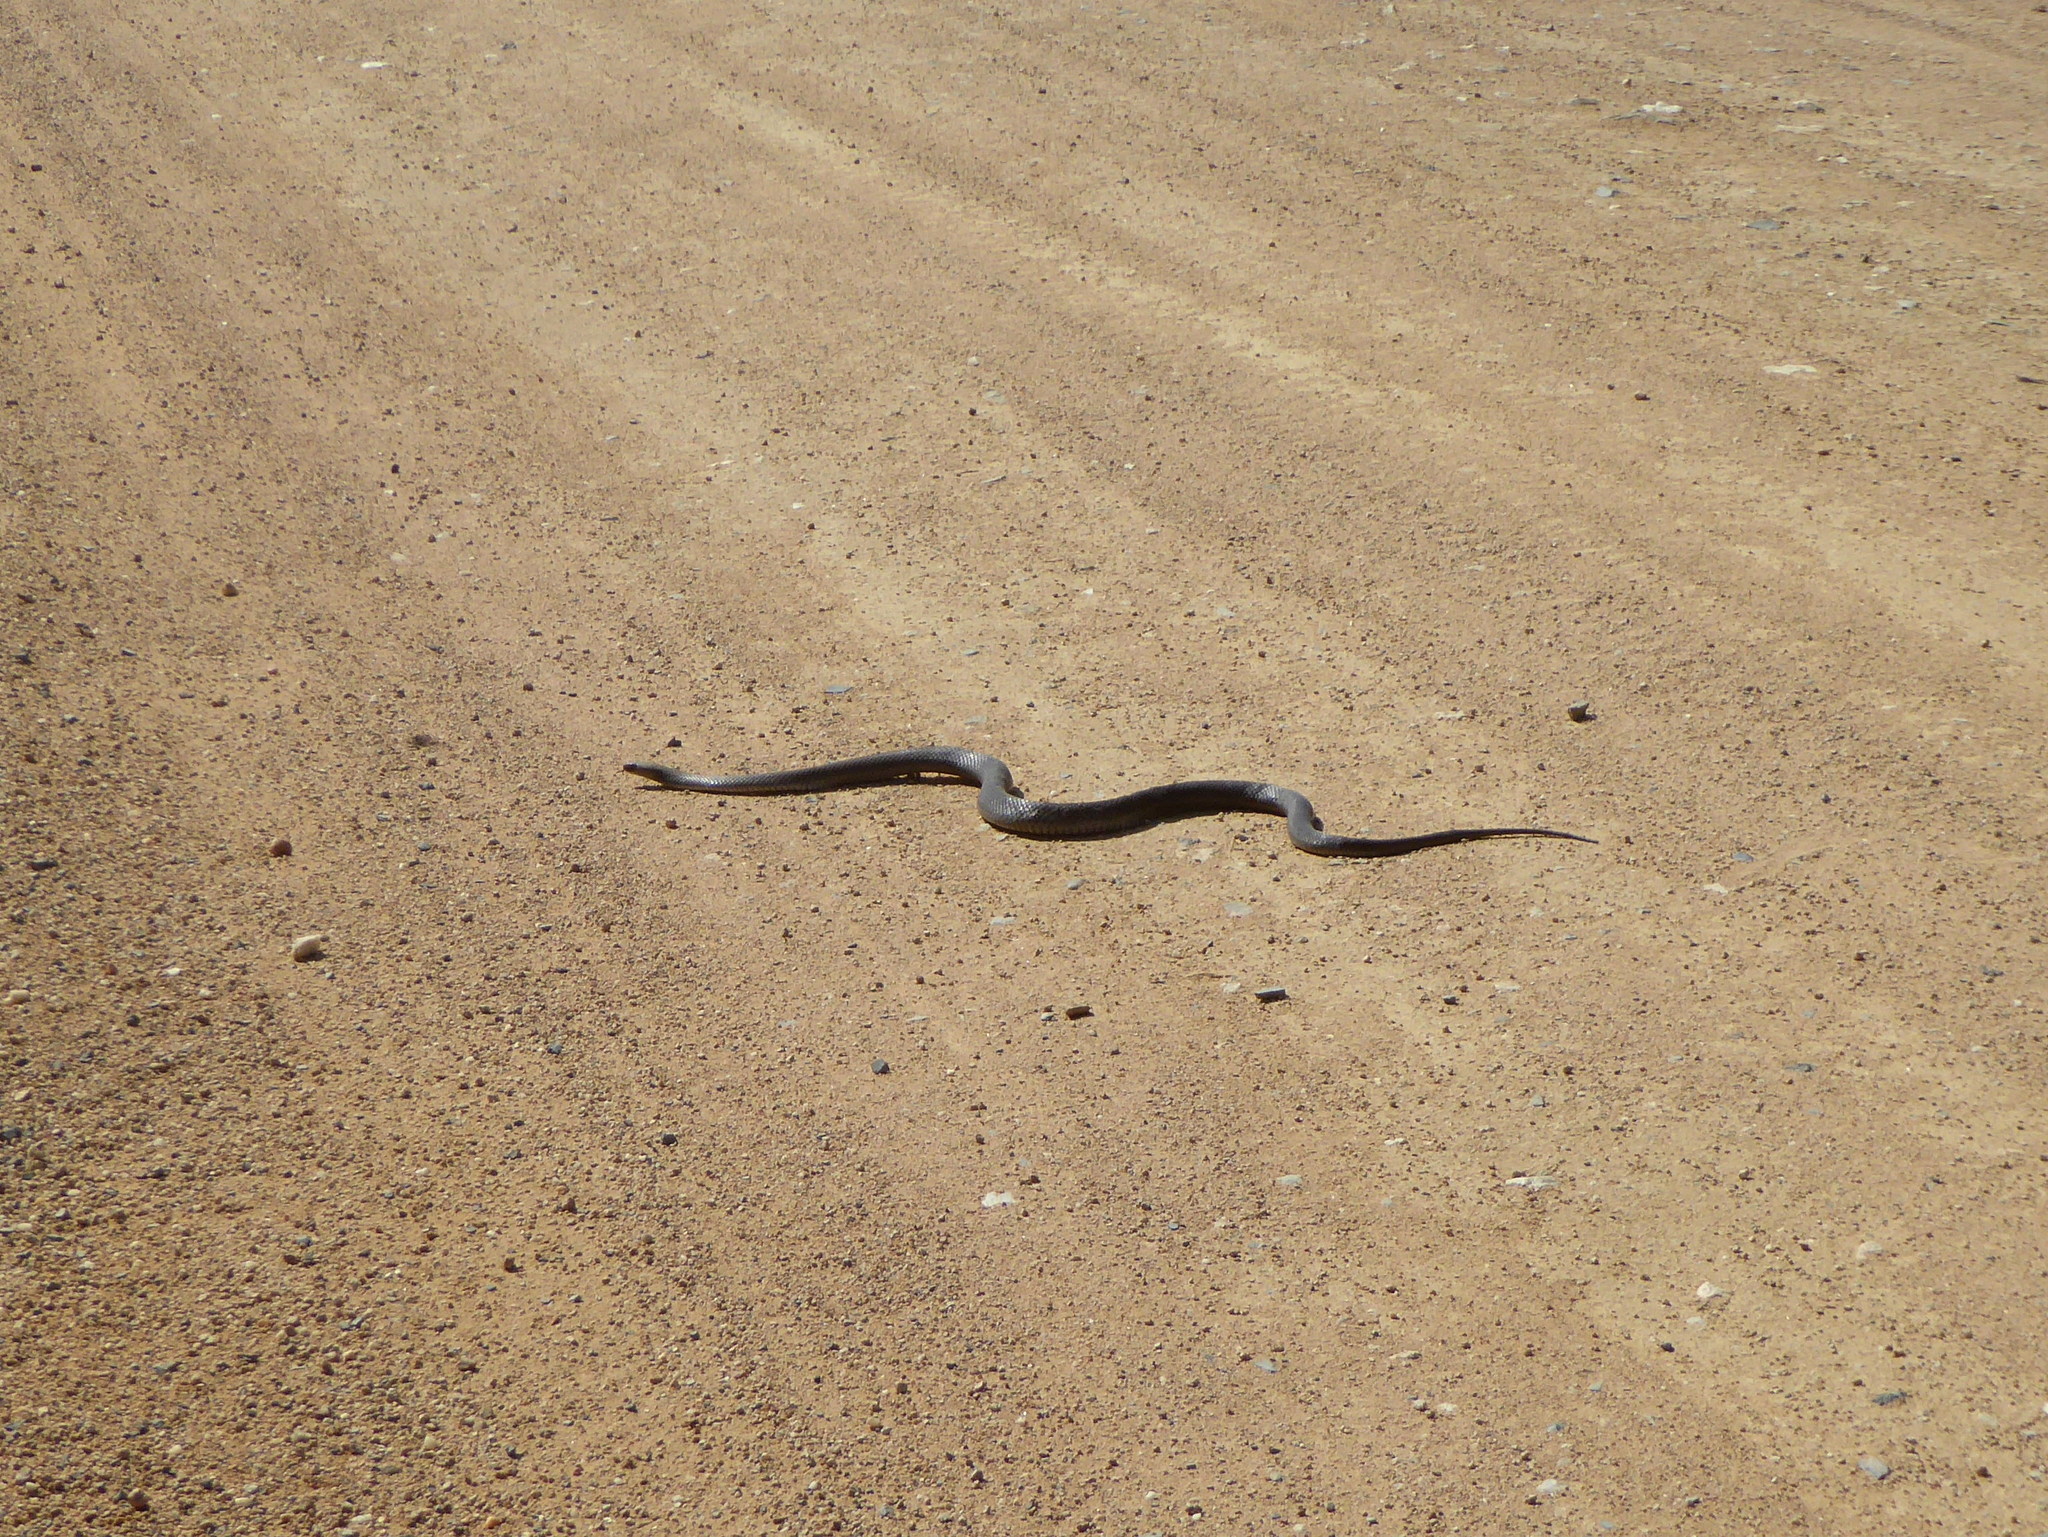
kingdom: Animalia
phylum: Chordata
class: Squamata
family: Elapidae
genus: Pseudonaja
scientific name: Pseudonaja textilis
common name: Eastern brown snake
